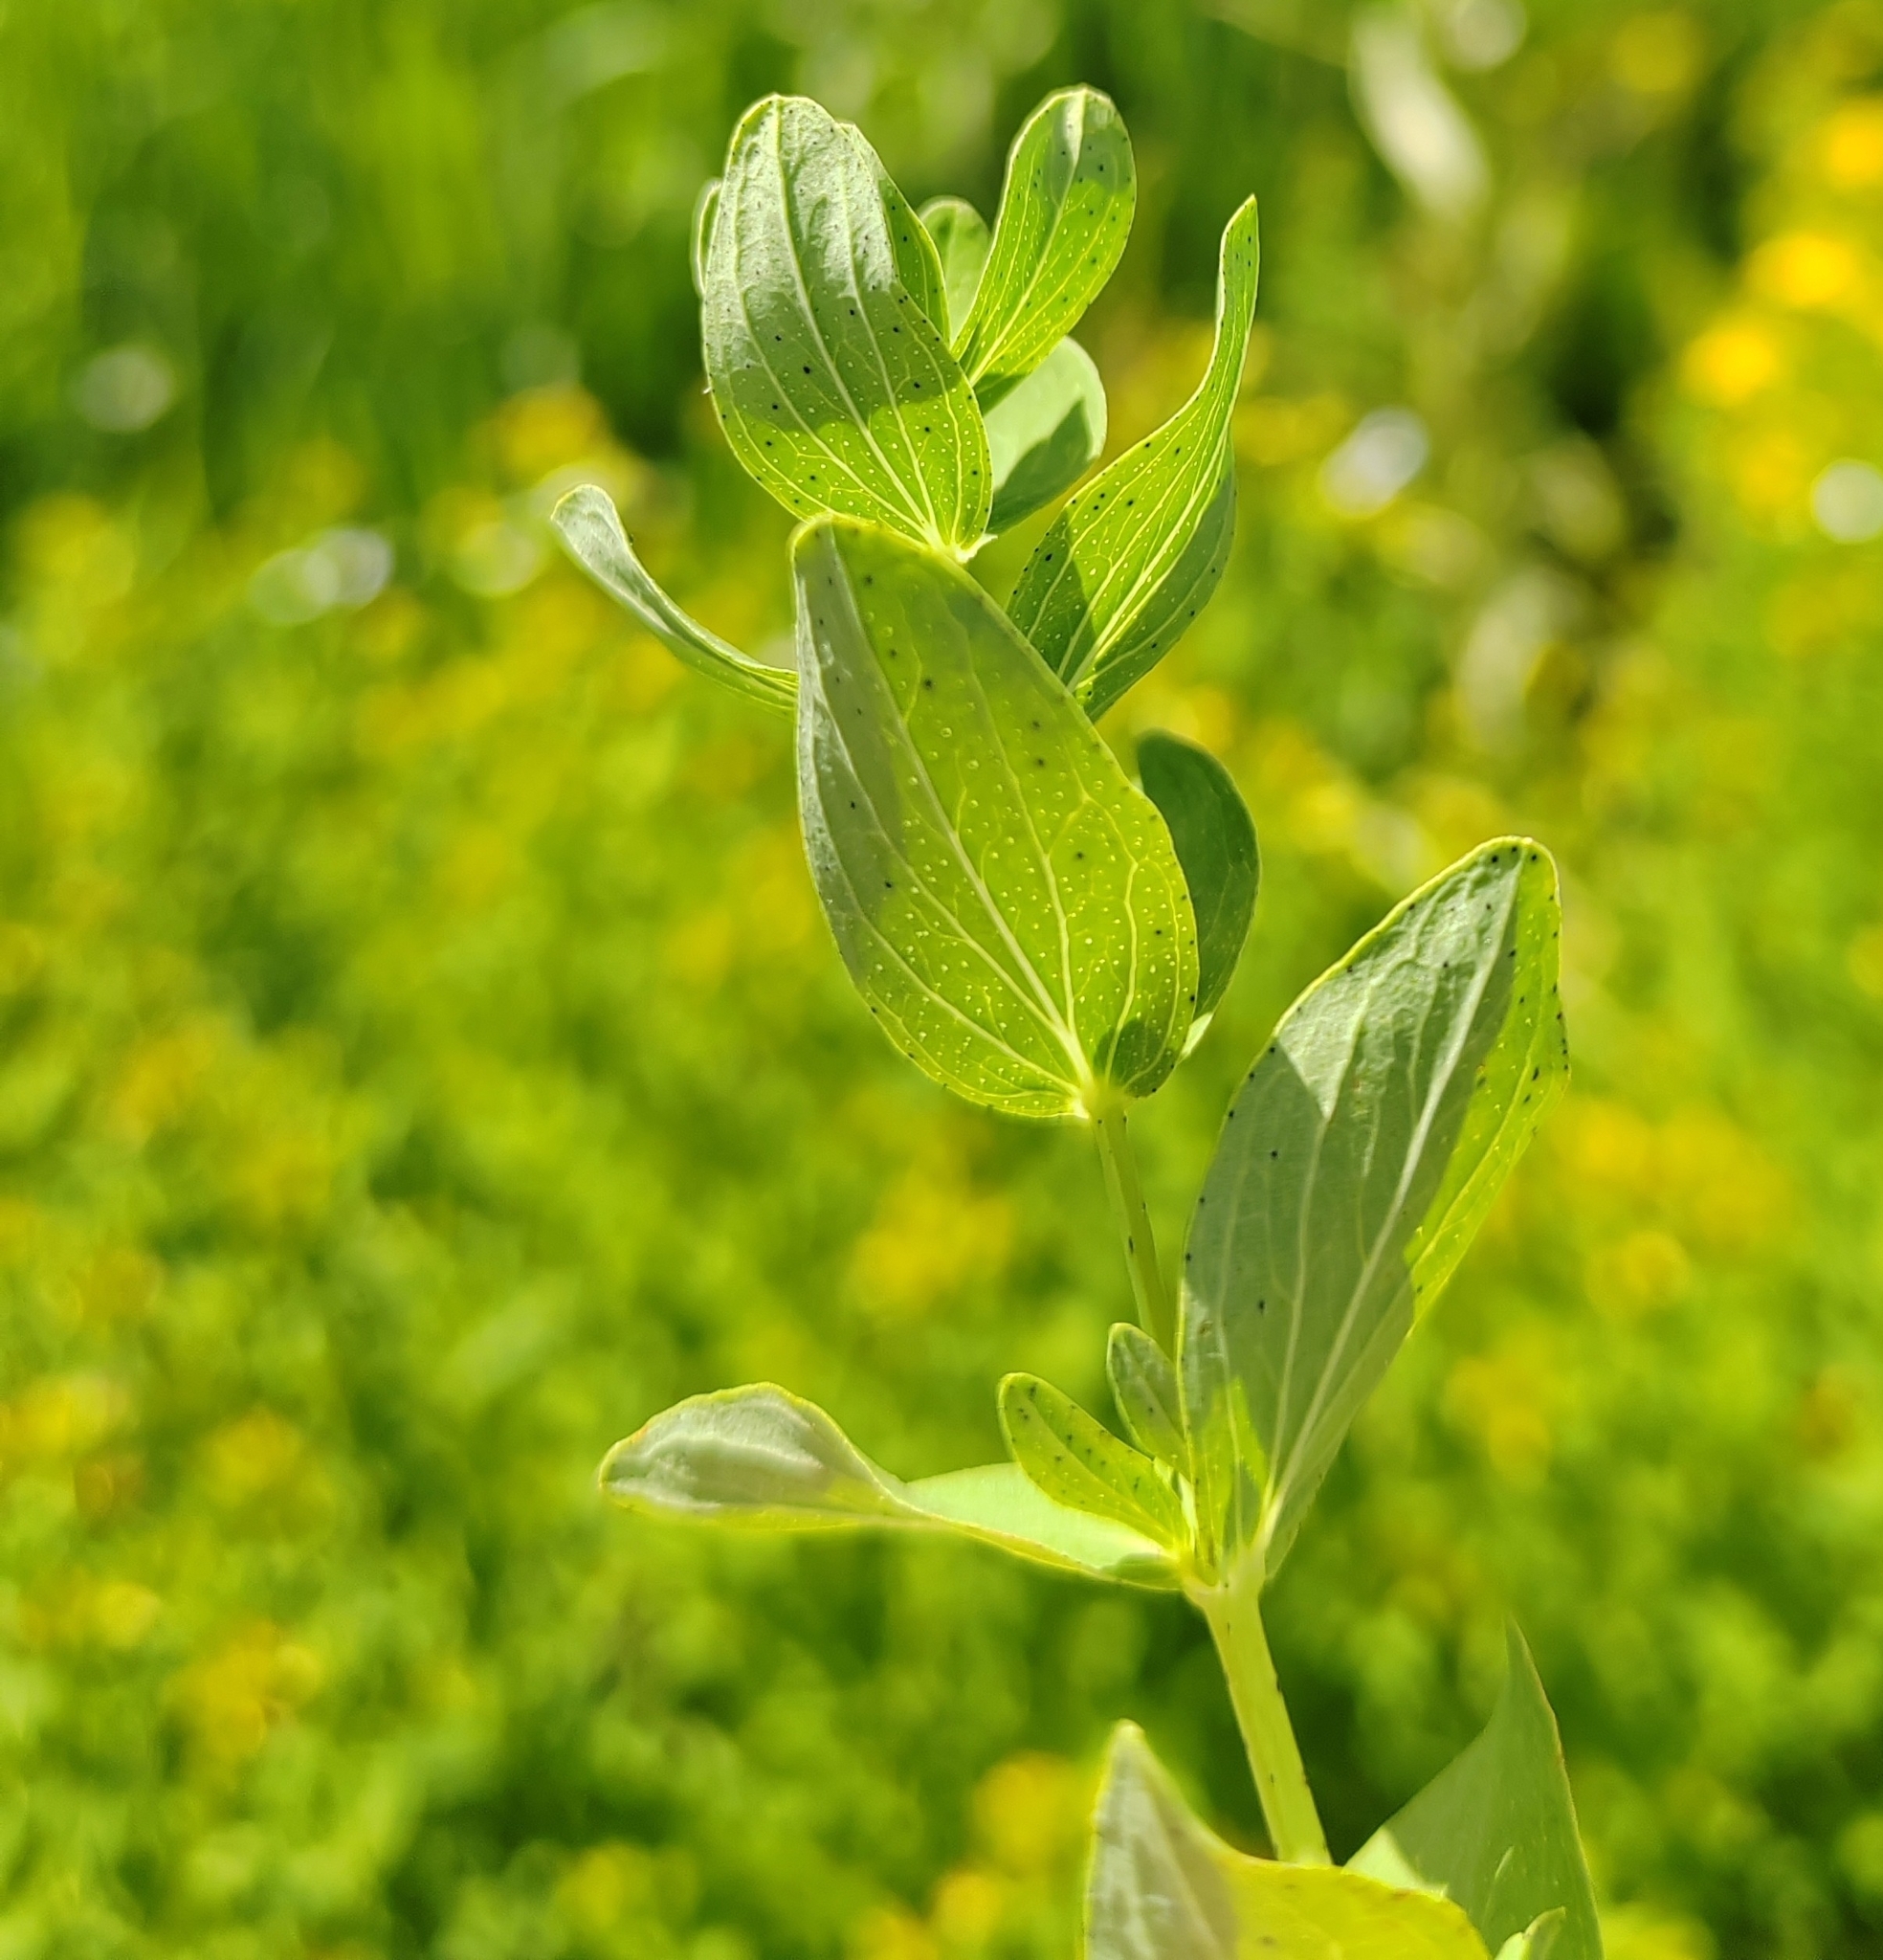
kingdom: Plantae
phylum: Tracheophyta
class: Magnoliopsida
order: Malpighiales
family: Hypericaceae
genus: Hypericum
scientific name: Hypericum perforatum
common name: Common st. johnswort
